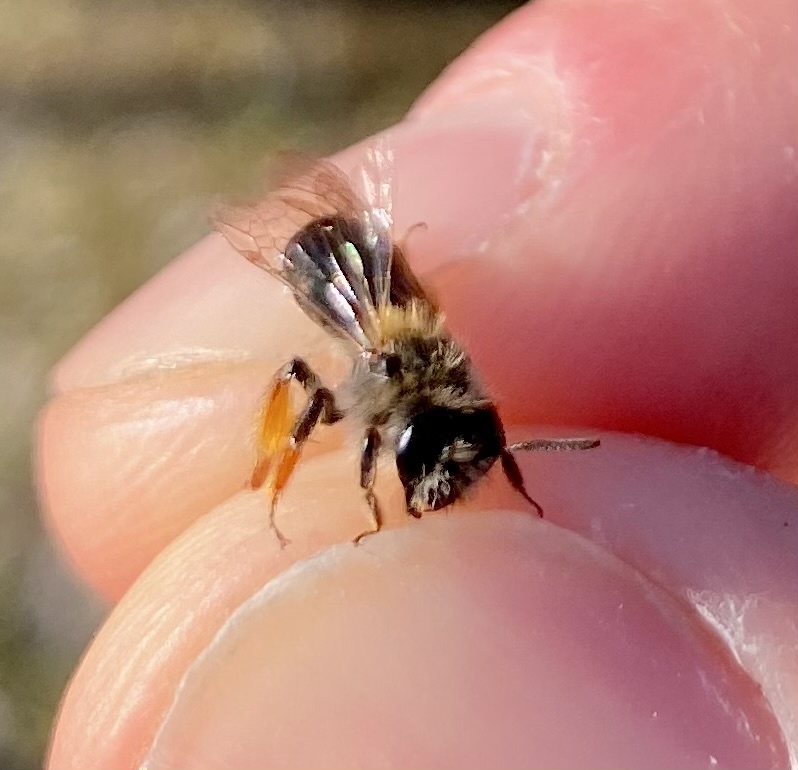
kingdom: Animalia
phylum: Arthropoda
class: Insecta
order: Hymenoptera
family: Andrenidae
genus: Andrena
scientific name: Andrena ruficrus
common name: Northern mining bee
